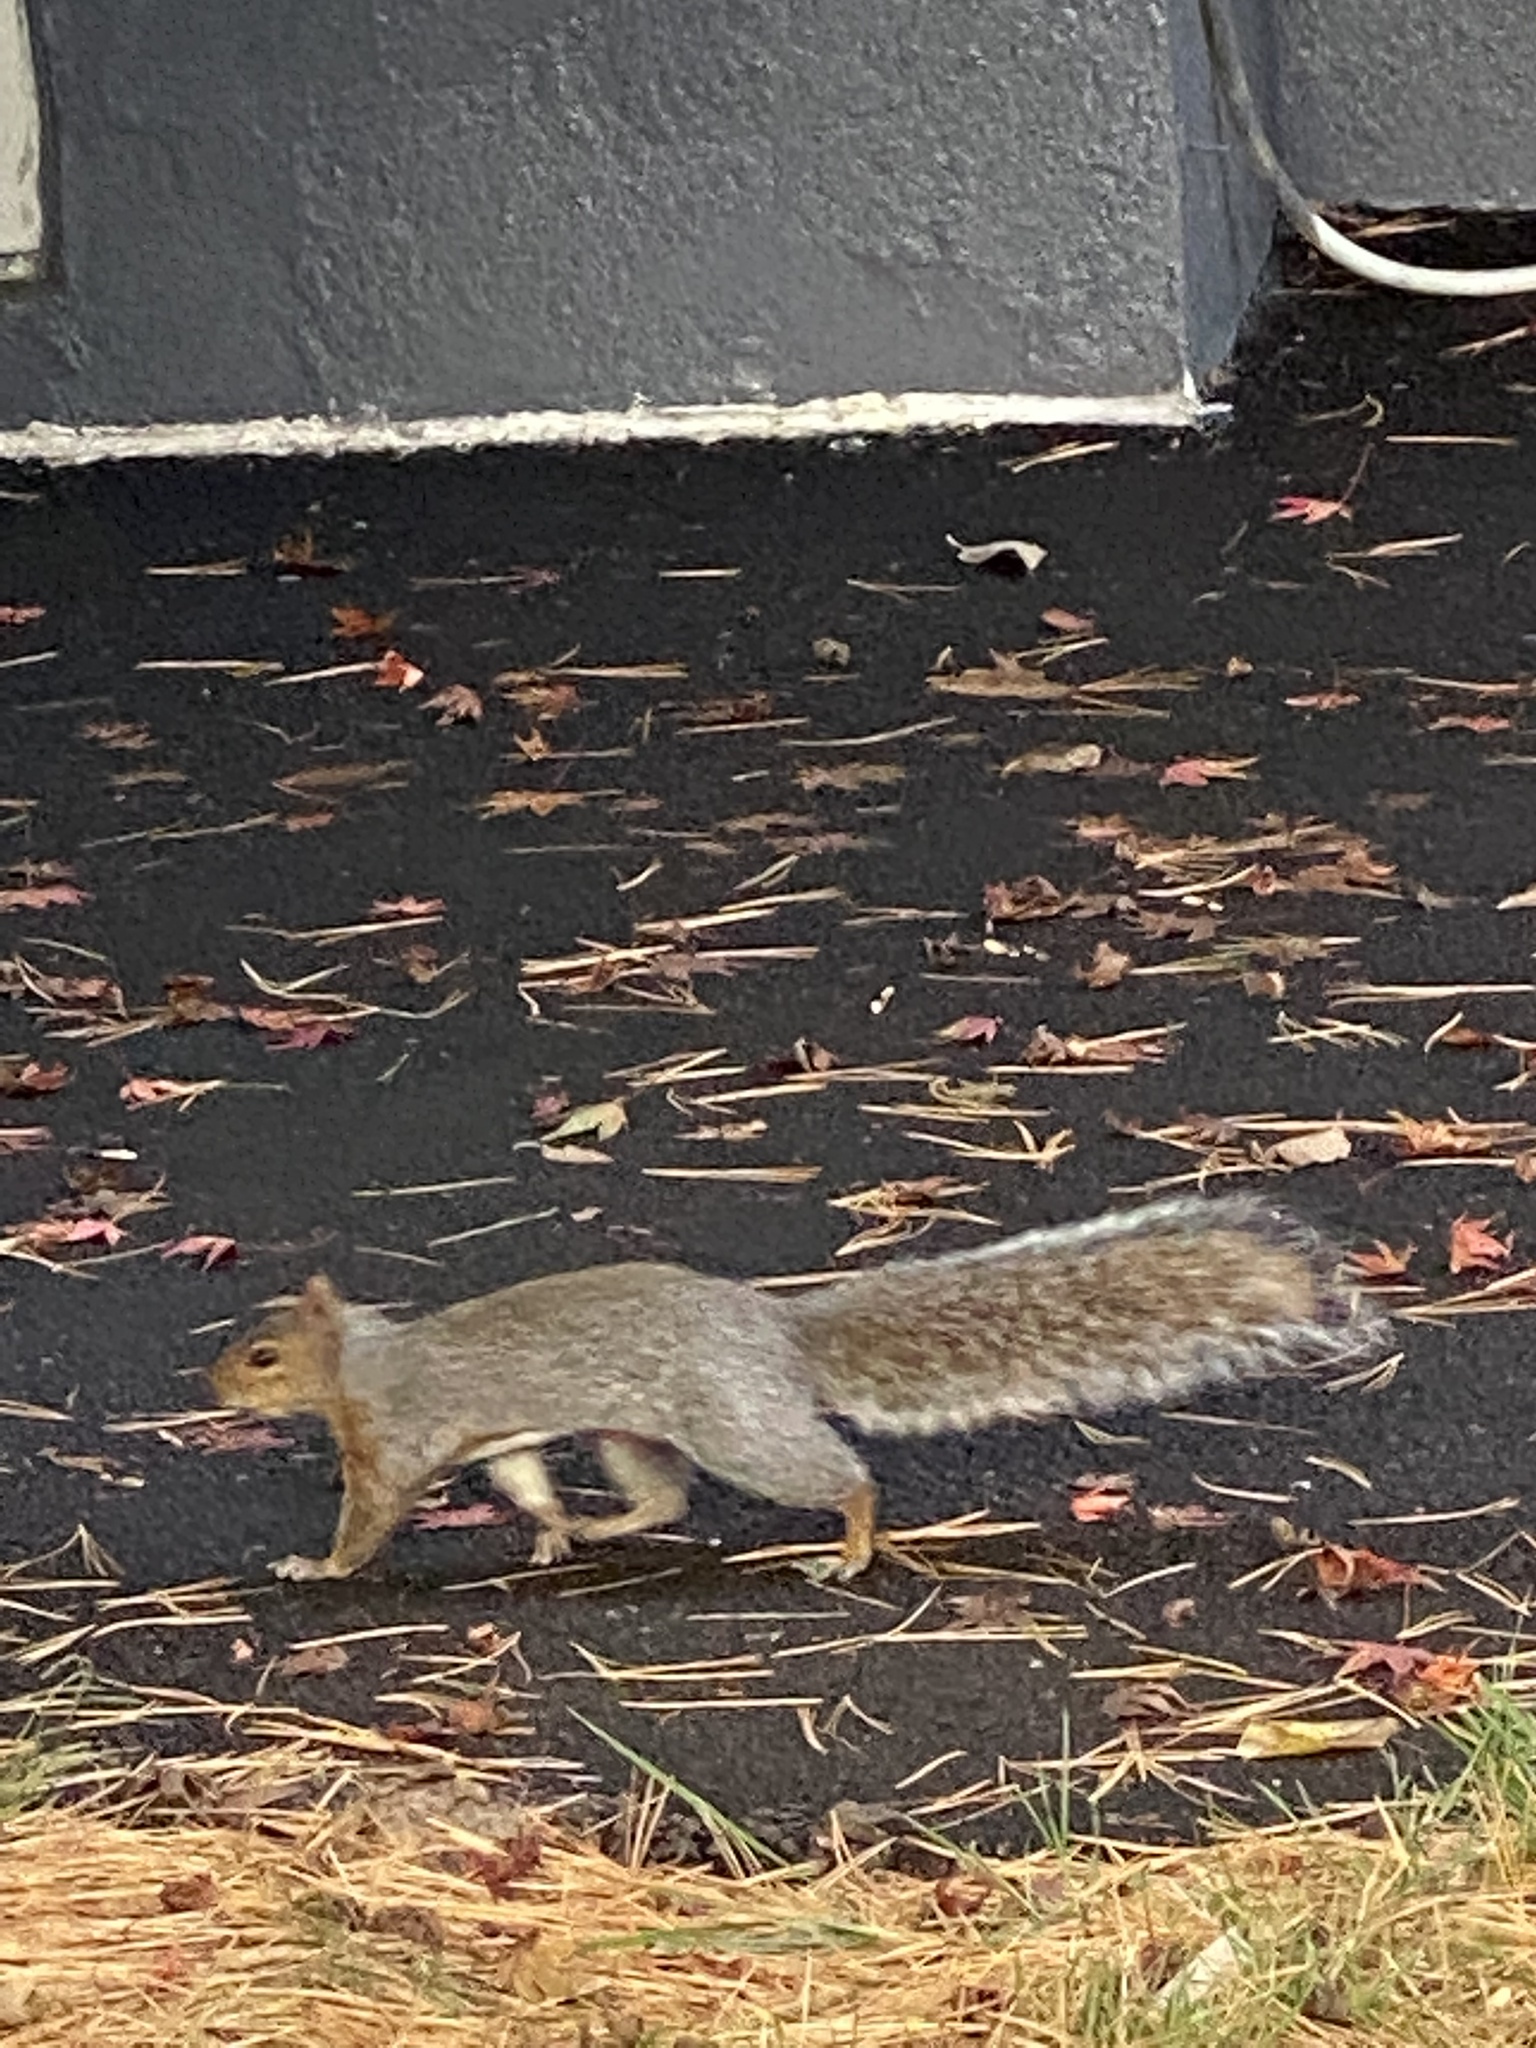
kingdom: Animalia
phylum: Chordata
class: Mammalia
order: Rodentia
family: Sciuridae
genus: Sciurus
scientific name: Sciurus carolinensis
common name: Eastern gray squirrel
